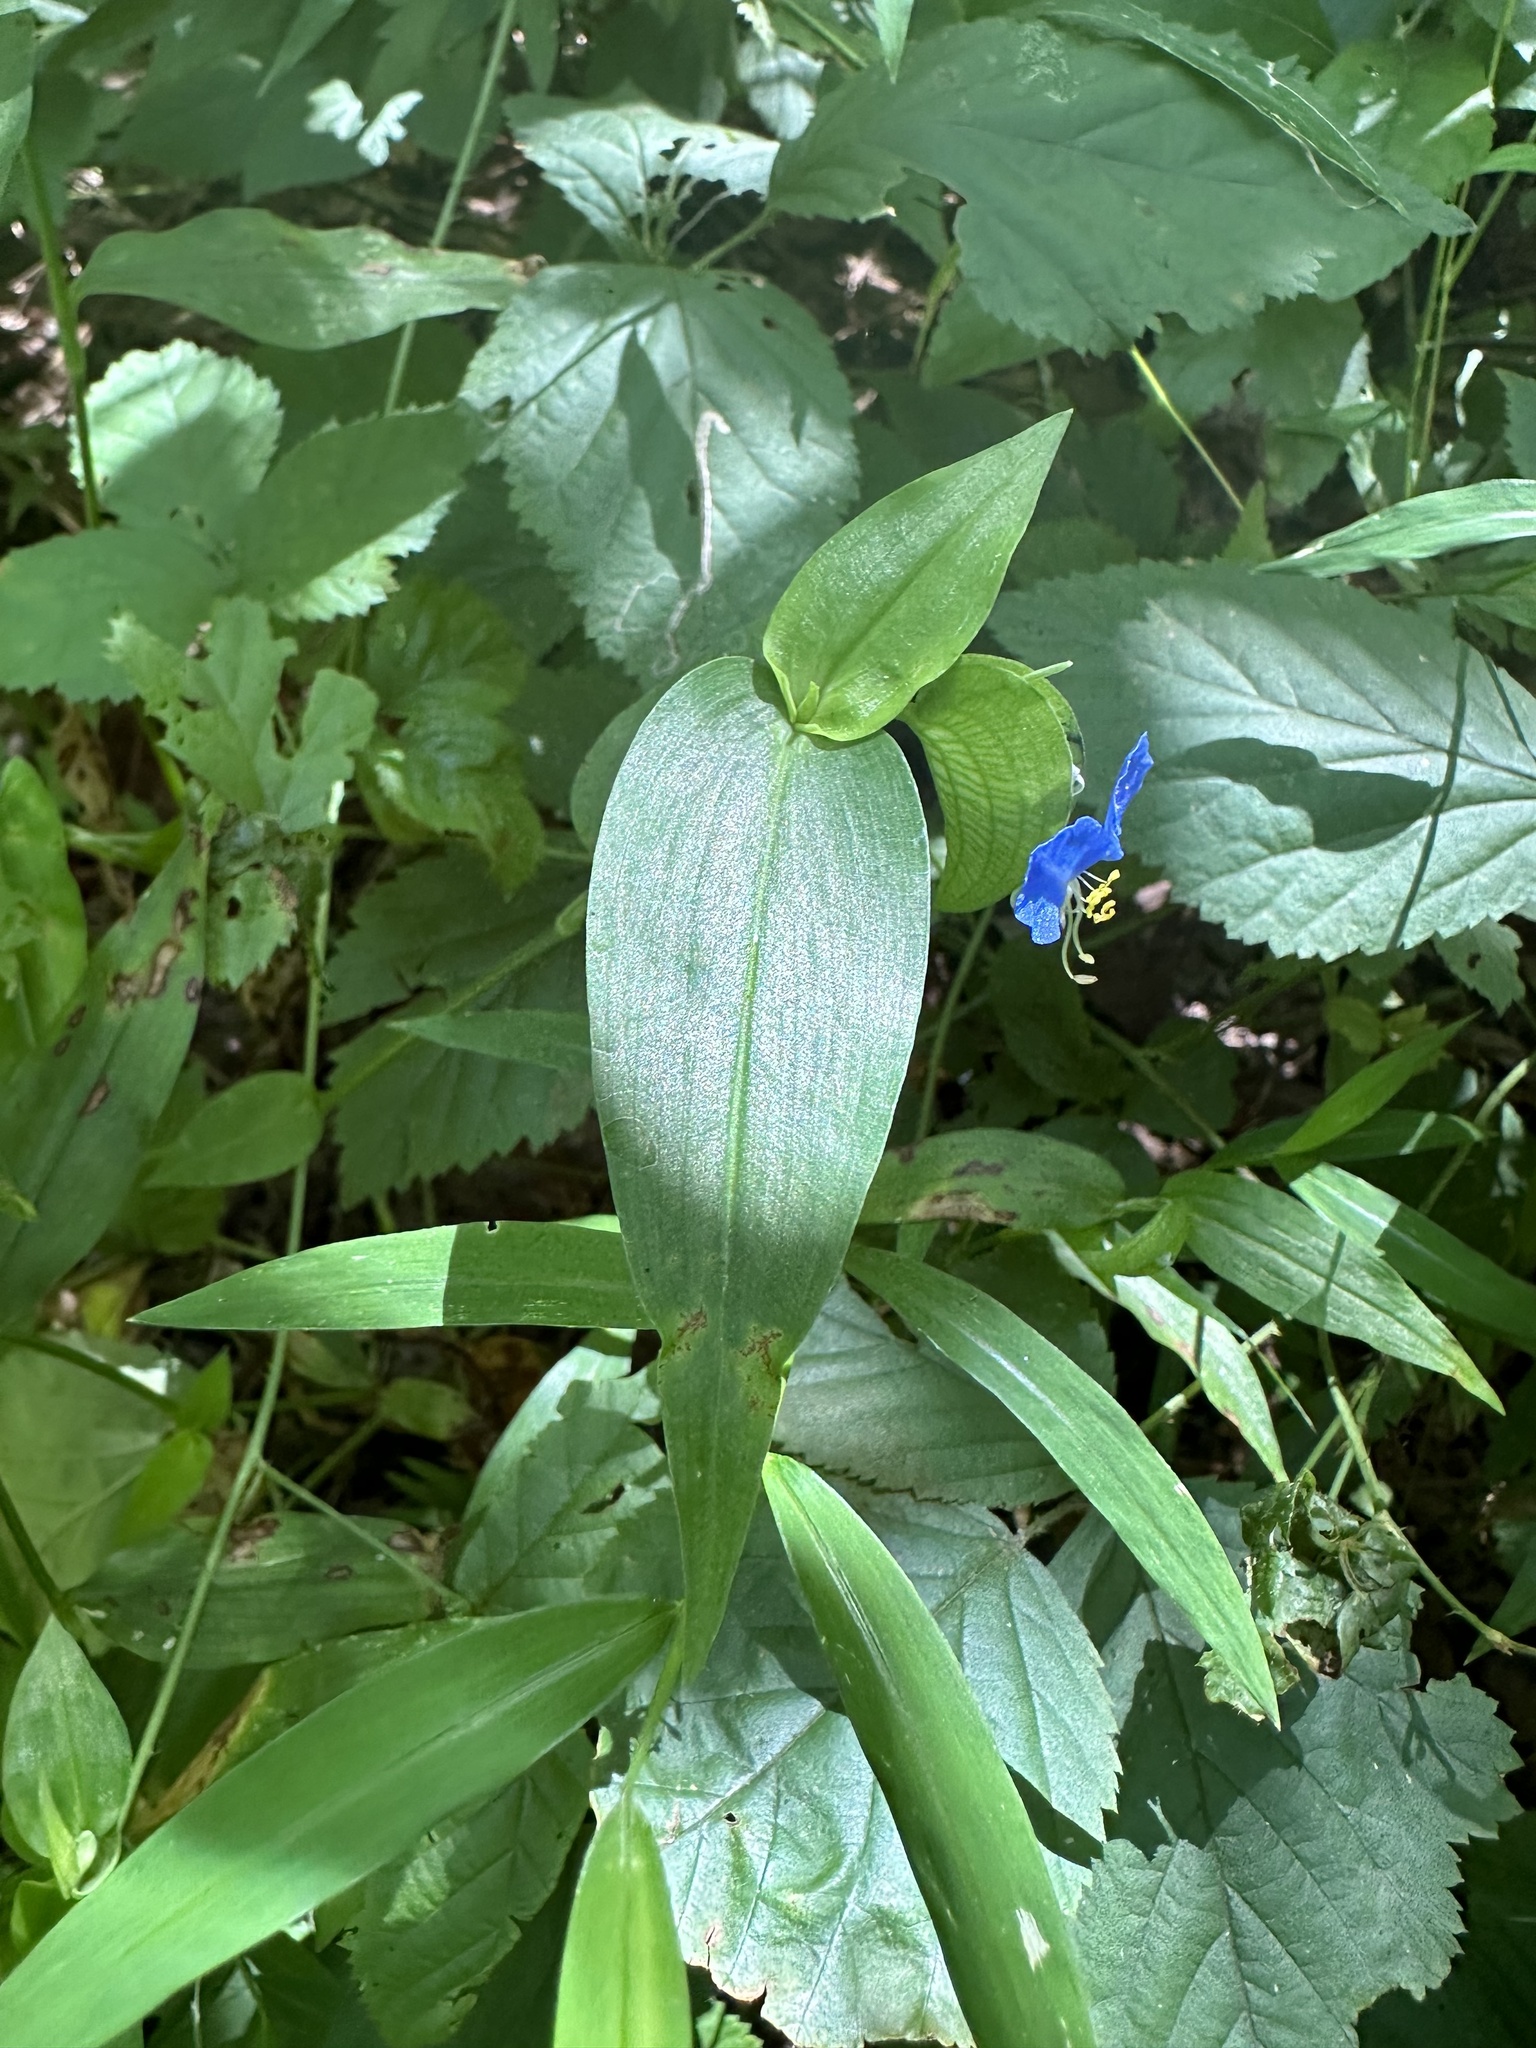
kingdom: Plantae
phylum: Tracheophyta
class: Liliopsida
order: Commelinales
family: Commelinaceae
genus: Commelina
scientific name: Commelina communis
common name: Asiatic dayflower
